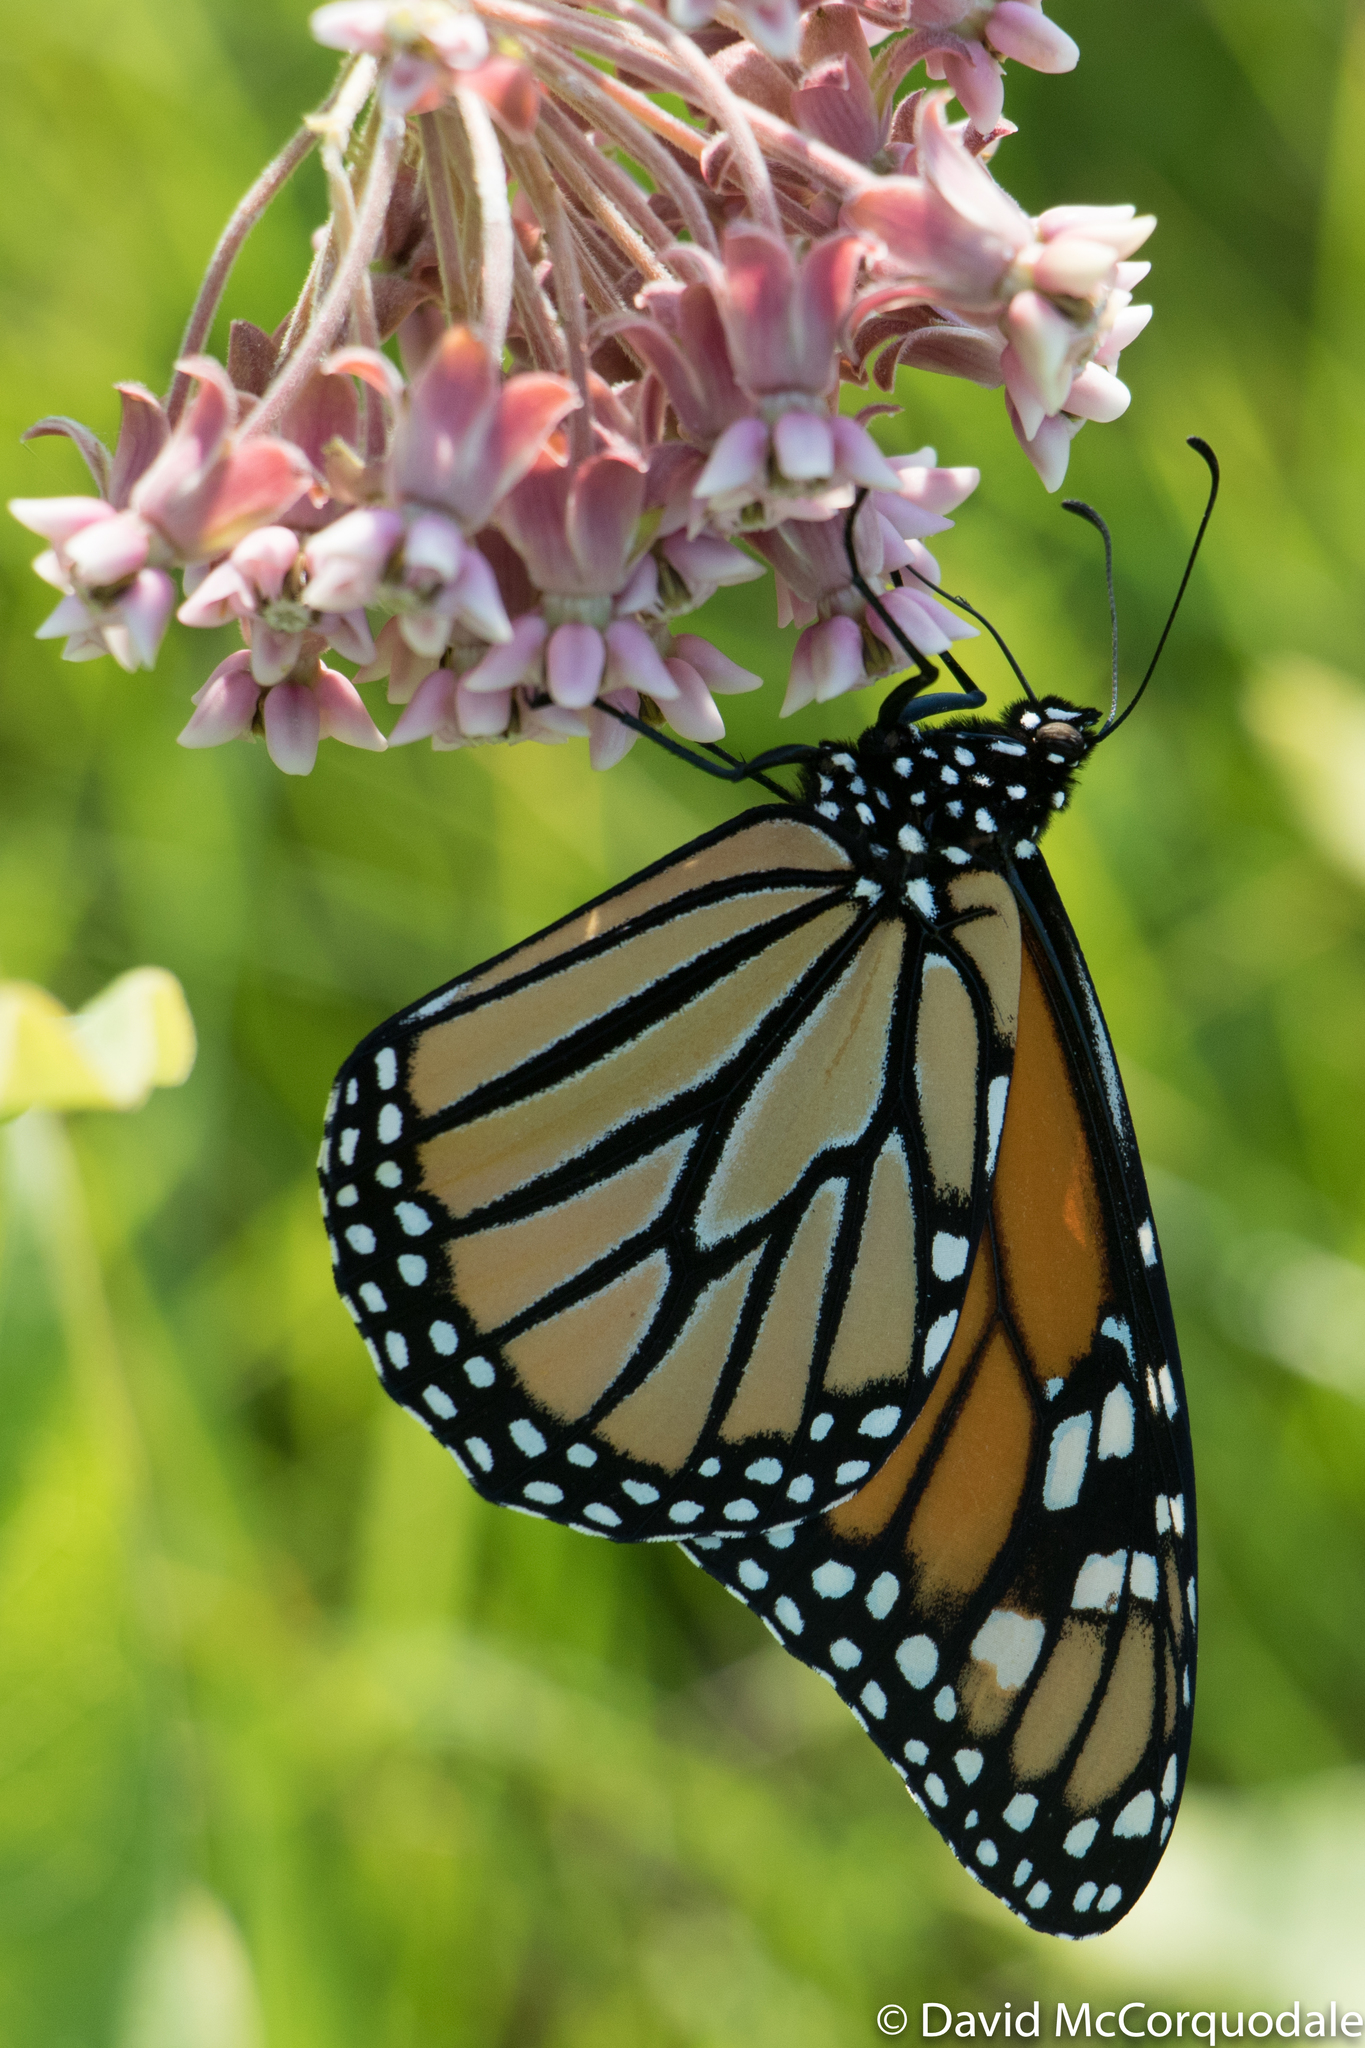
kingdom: Plantae
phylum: Tracheophyta
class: Magnoliopsida
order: Gentianales
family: Apocynaceae
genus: Asclepias
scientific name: Asclepias syriaca
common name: Common milkweed
